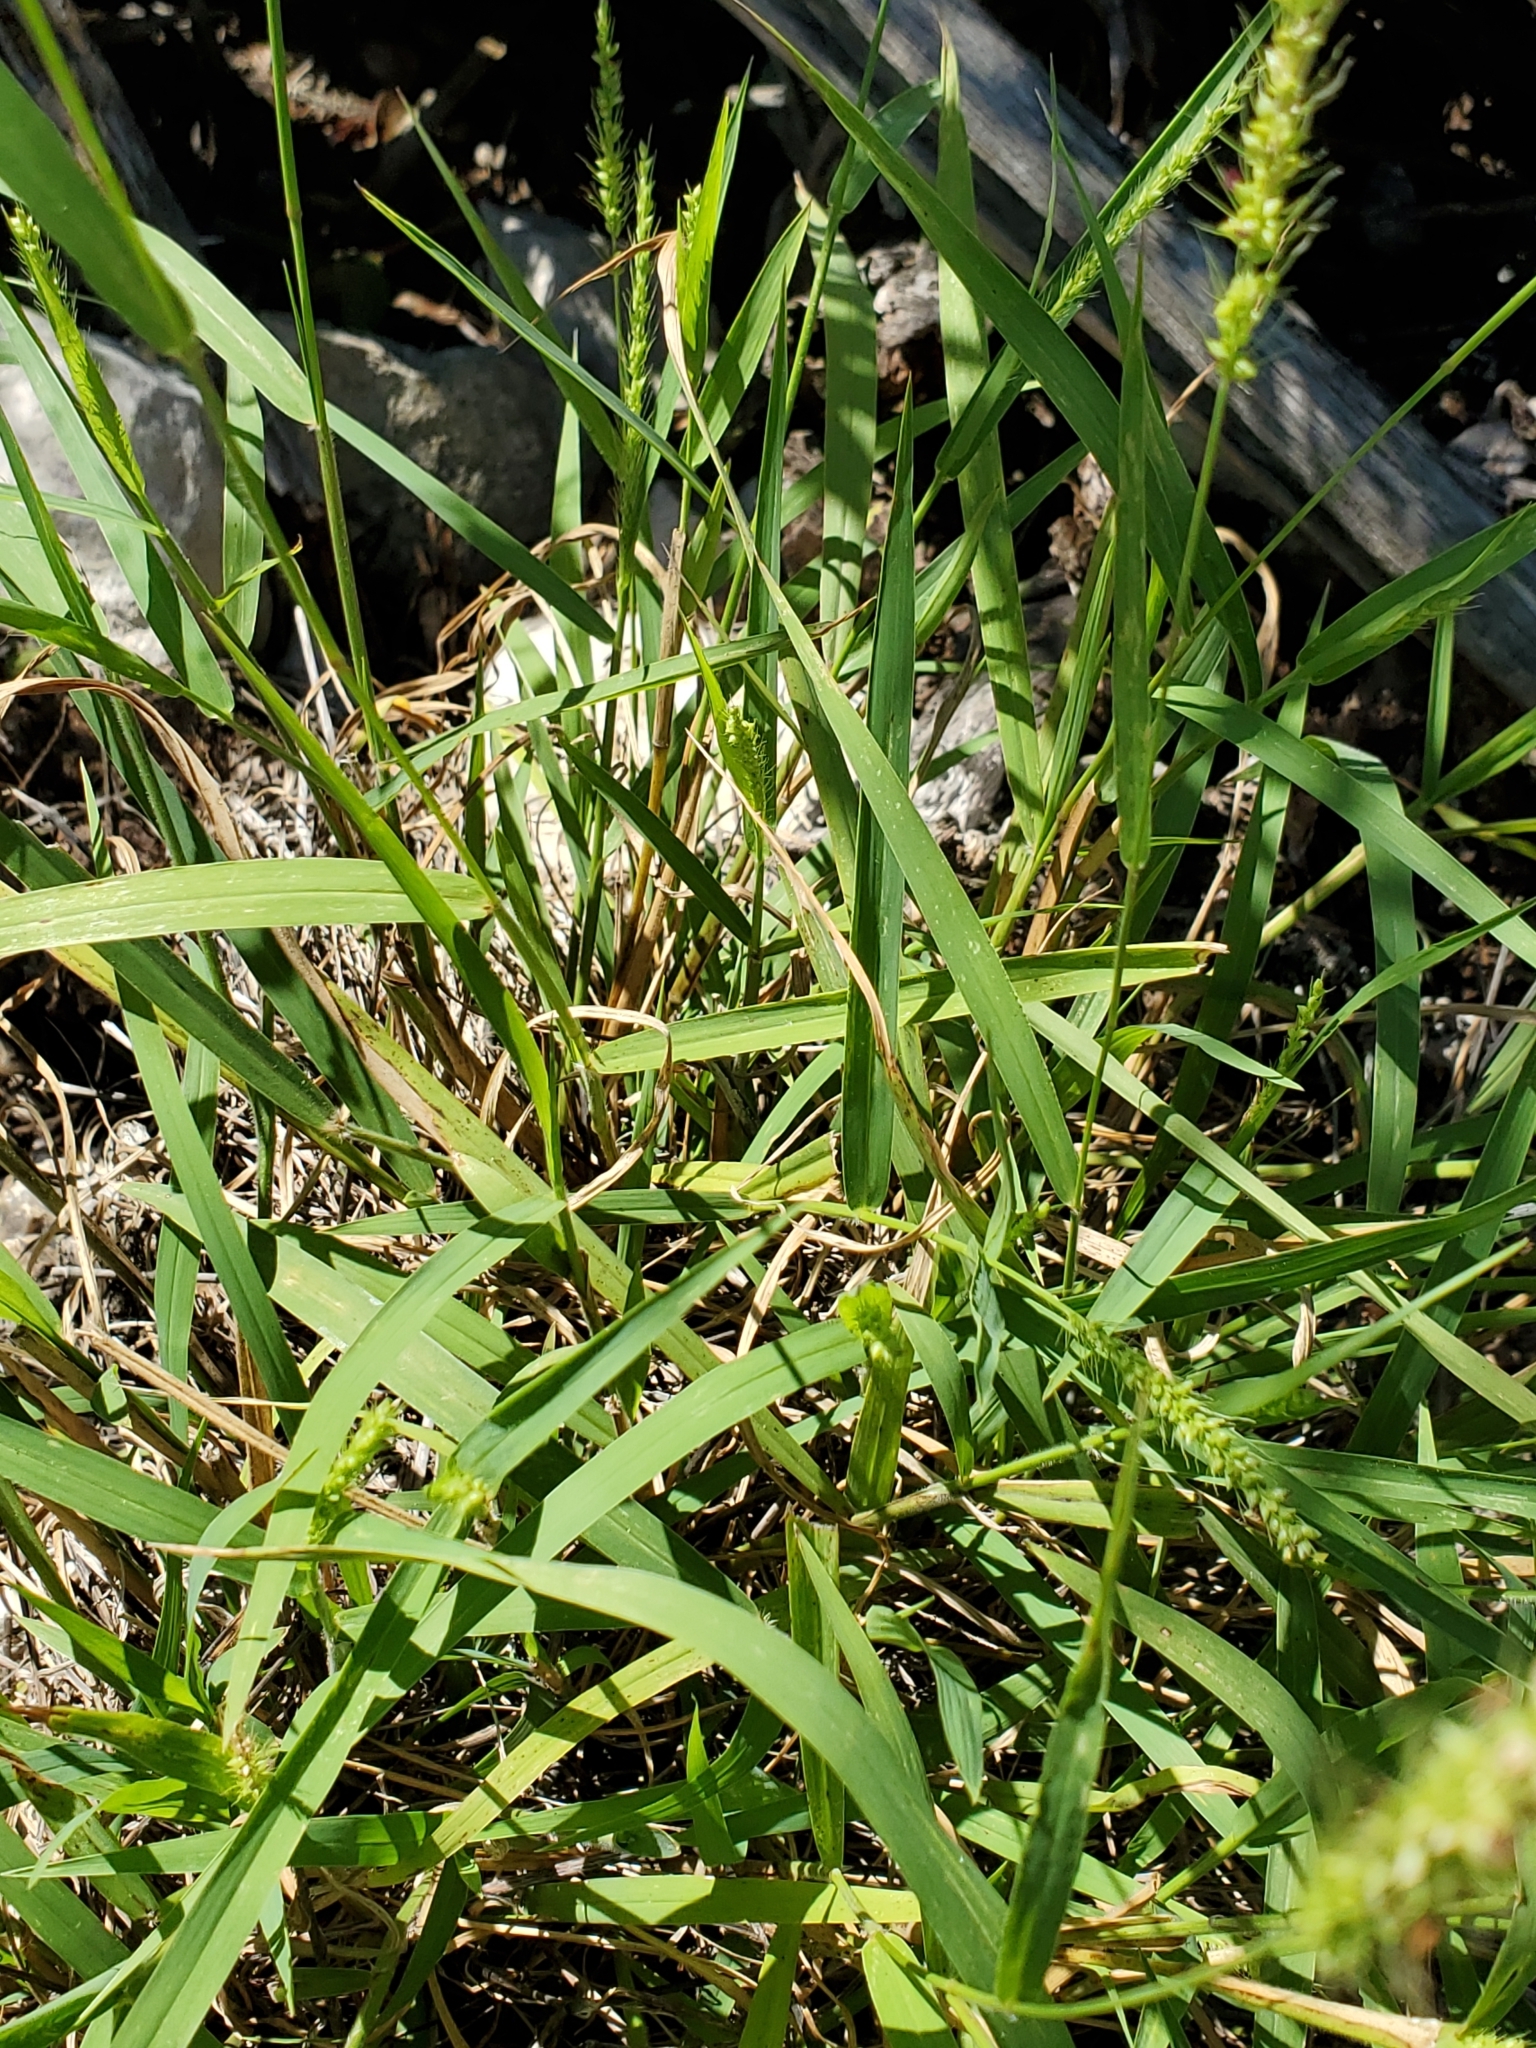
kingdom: Plantae
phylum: Tracheophyta
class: Liliopsida
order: Poales
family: Poaceae
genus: Setaria
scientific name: Setaria scheelei
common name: Southwestern bristle grass
